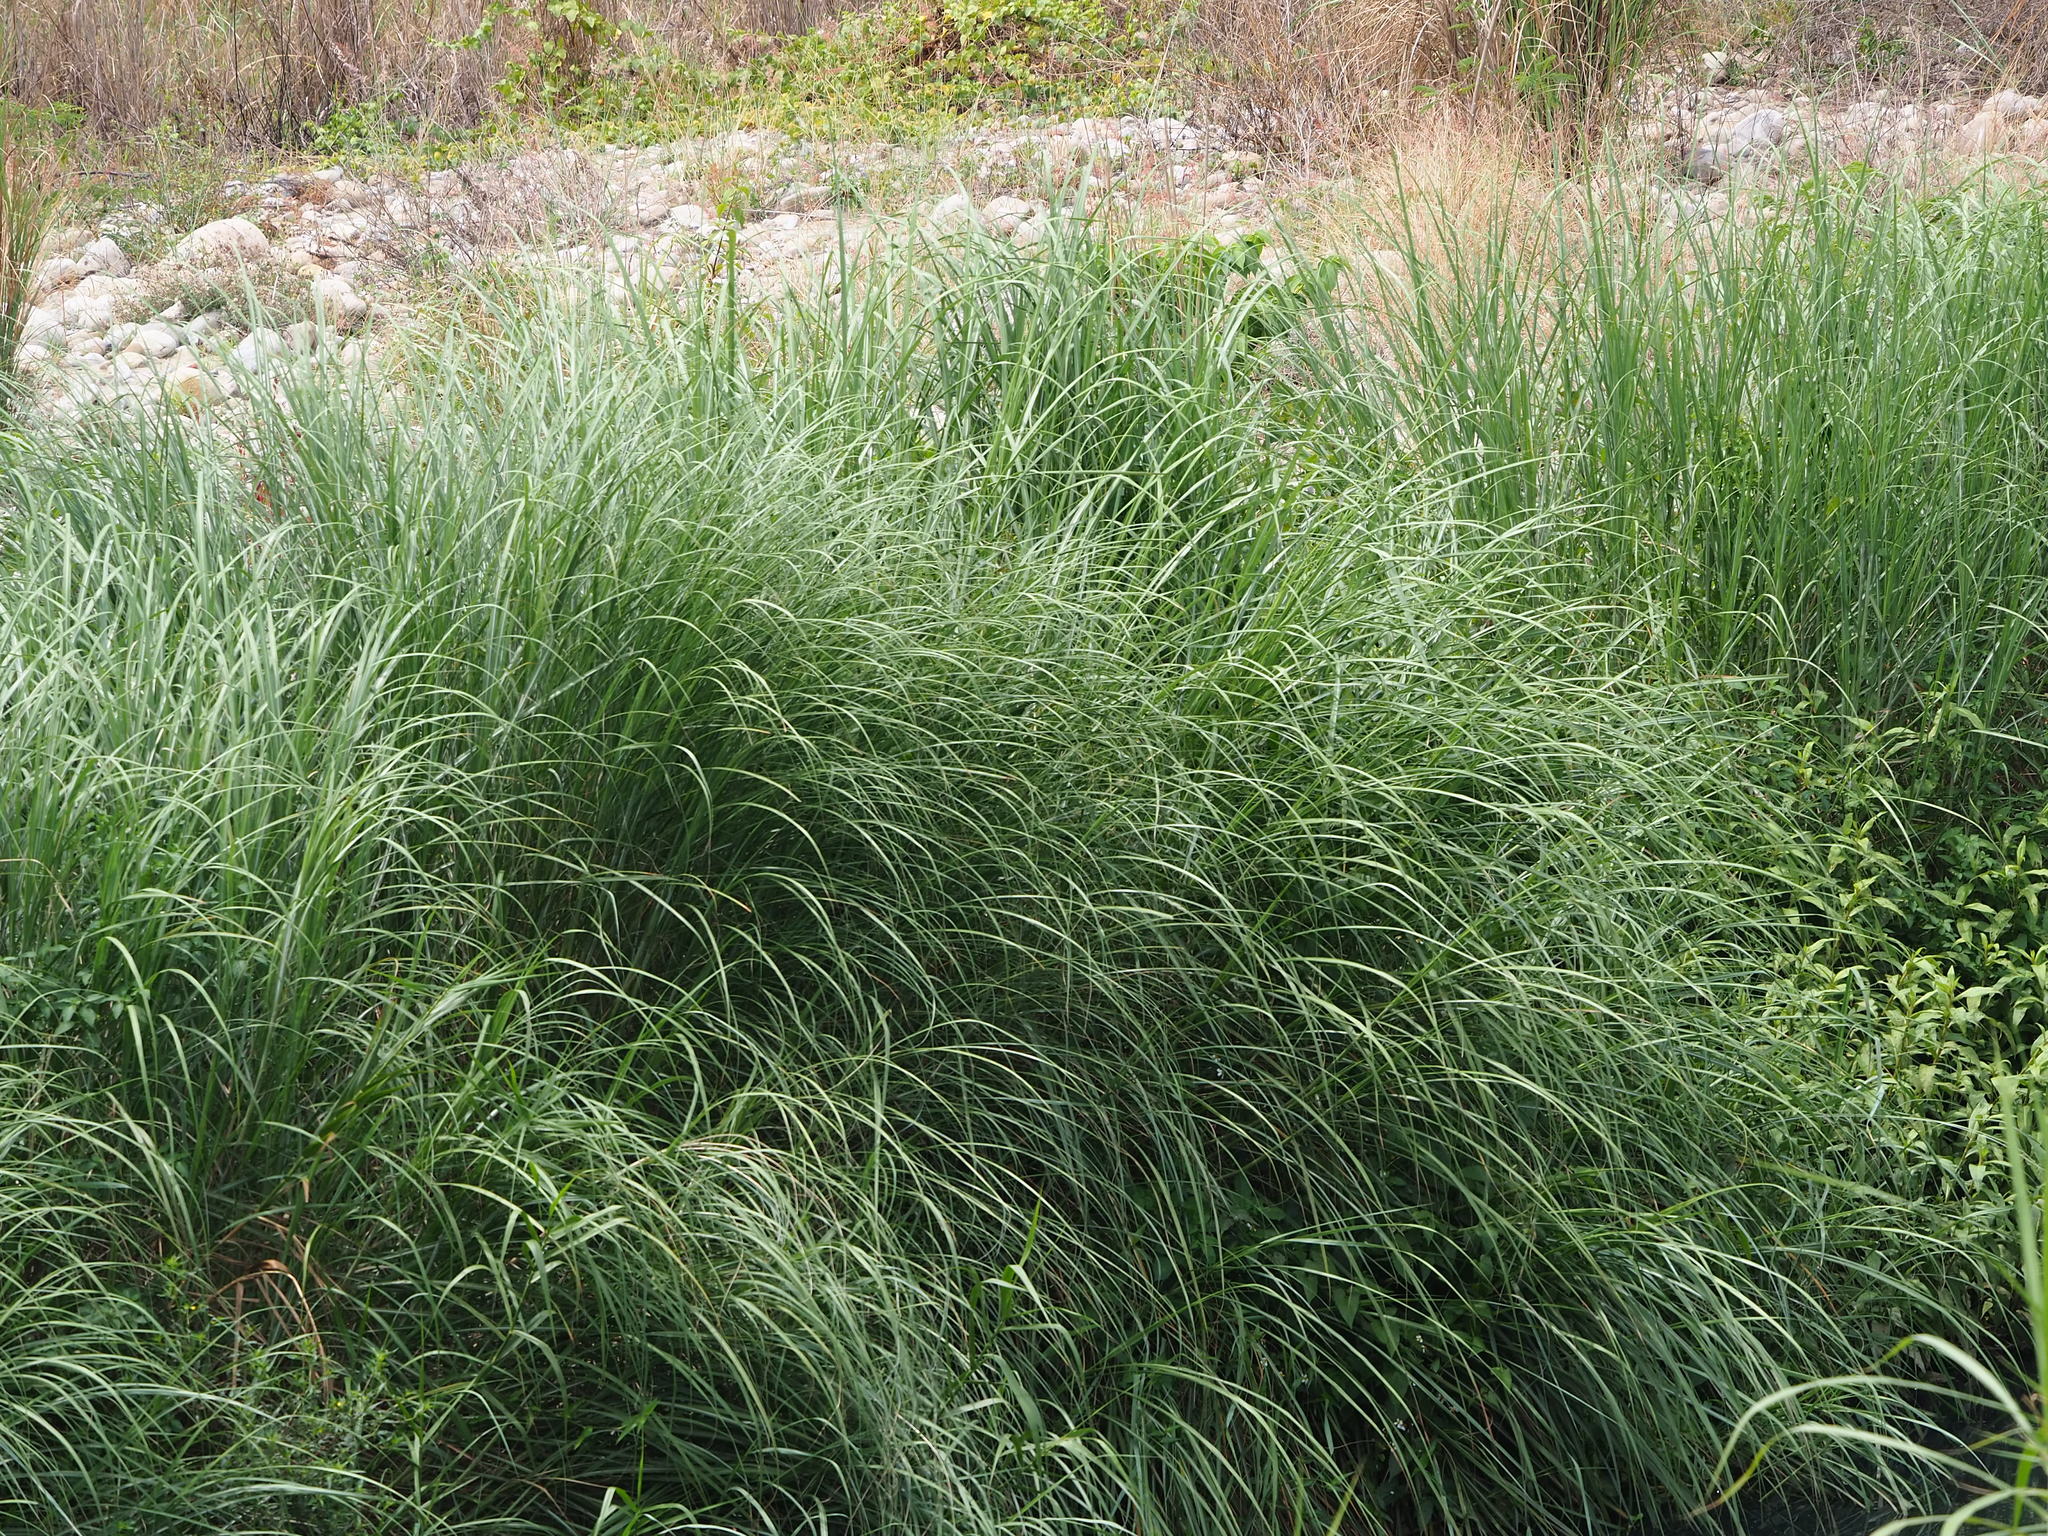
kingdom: Plantae
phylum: Tracheophyta
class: Liliopsida
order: Poales
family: Poaceae
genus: Saccharum
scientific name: Saccharum spontaneum
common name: Wild sugarcane
